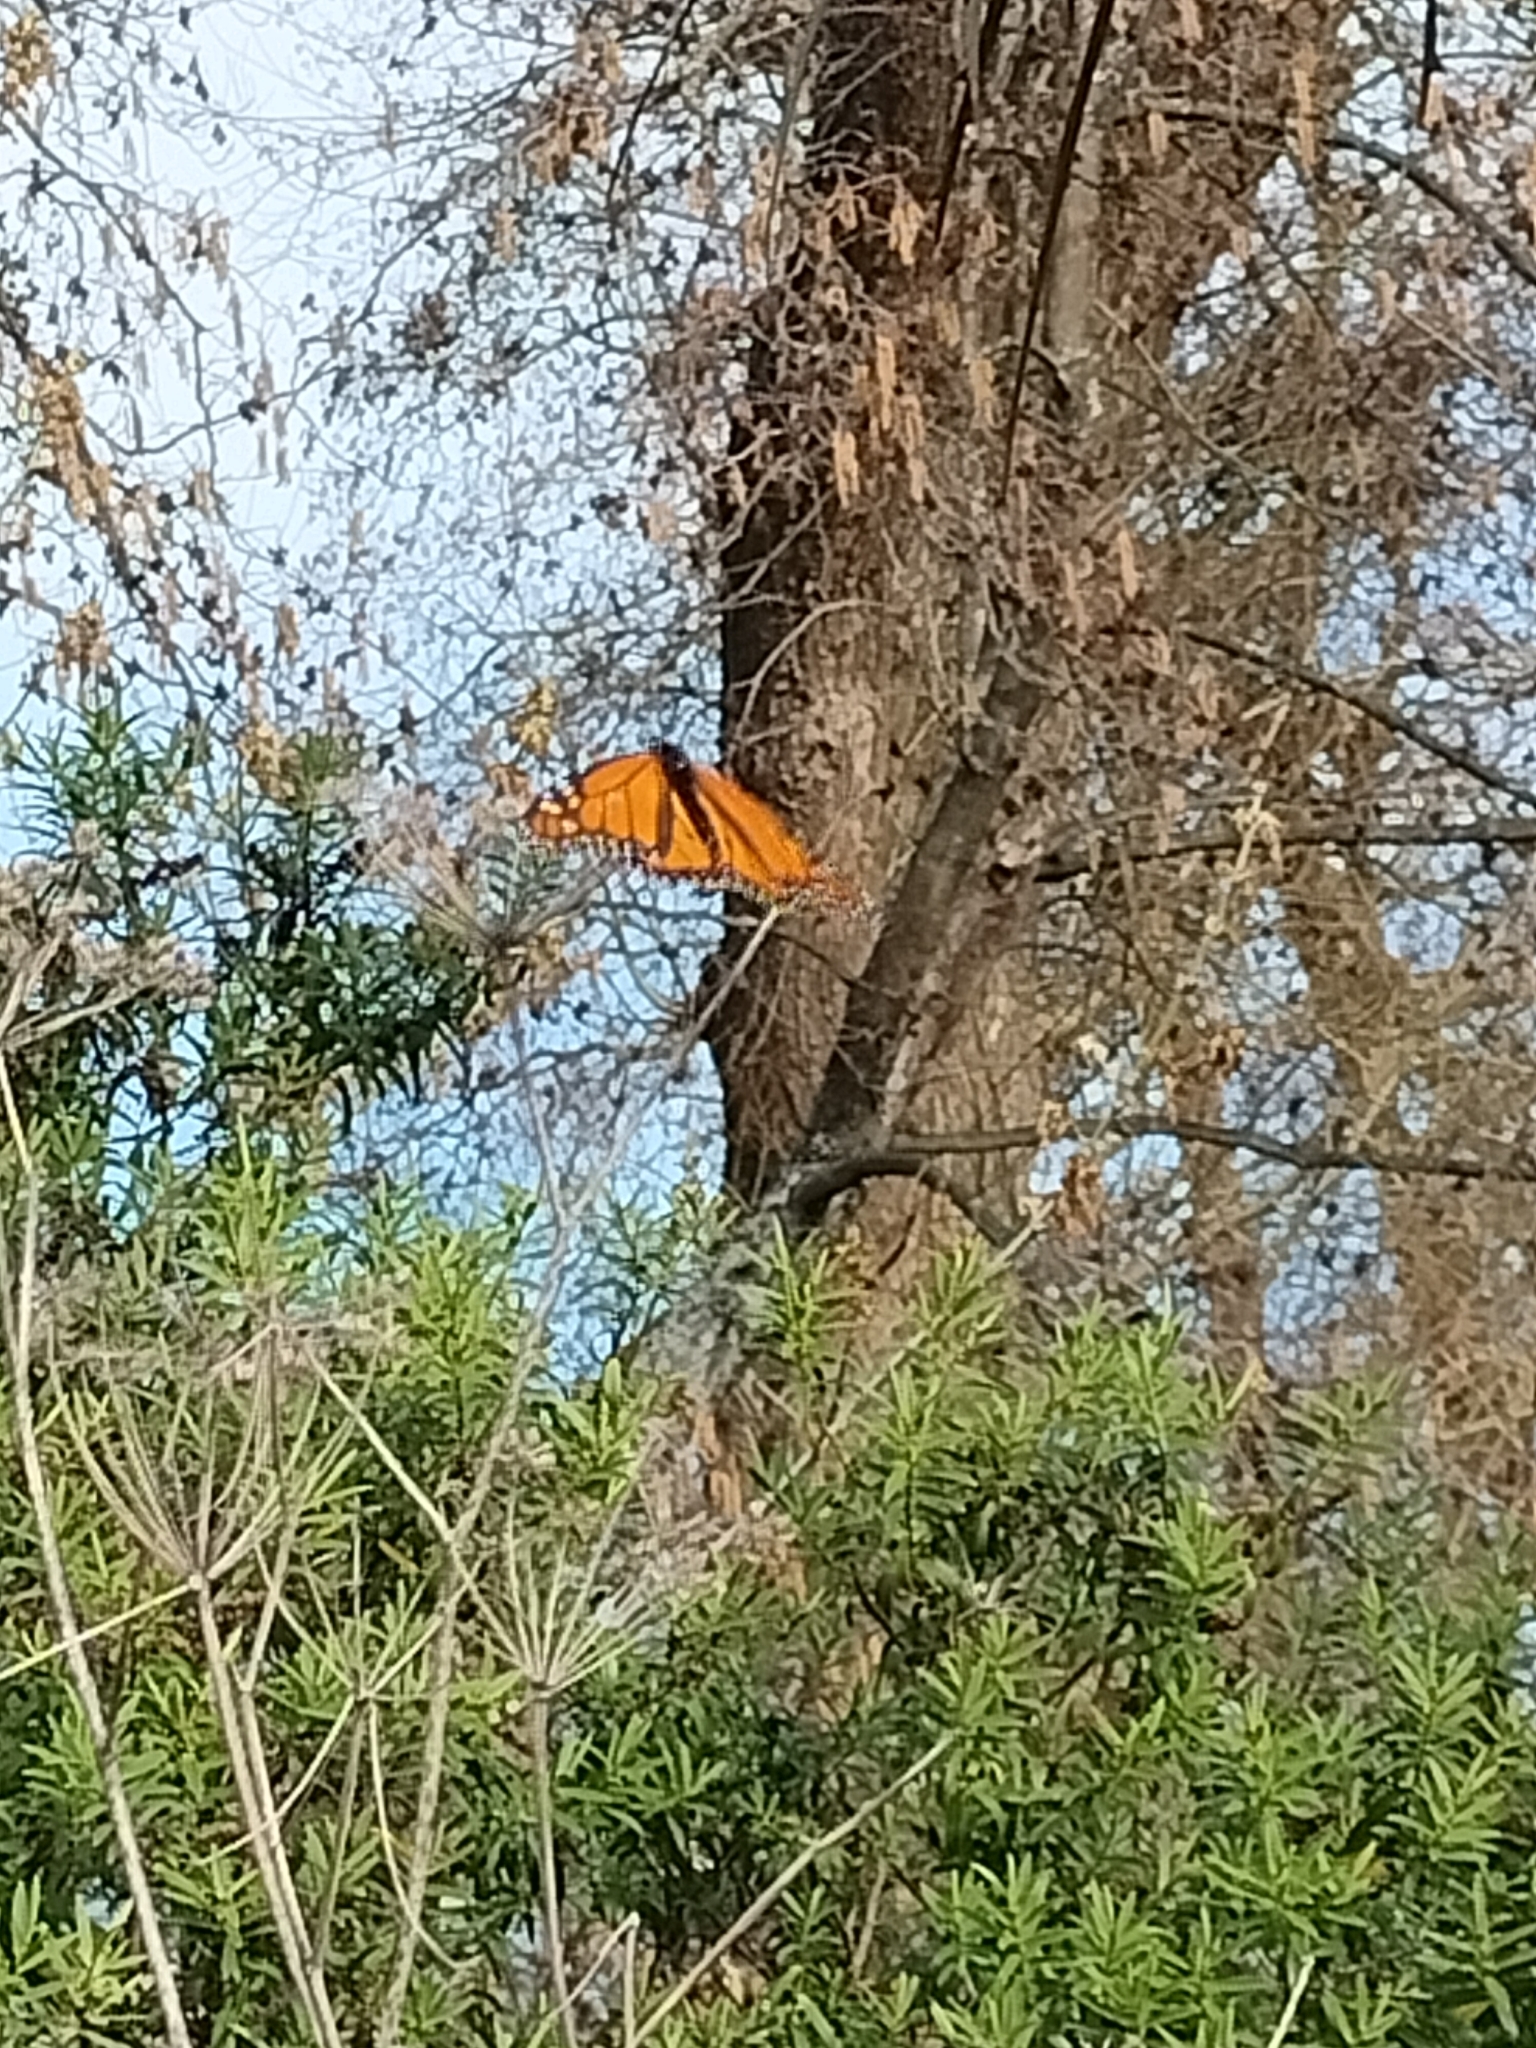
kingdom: Animalia
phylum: Arthropoda
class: Insecta
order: Lepidoptera
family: Nymphalidae
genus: Danaus
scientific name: Danaus plexippus
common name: Monarch
